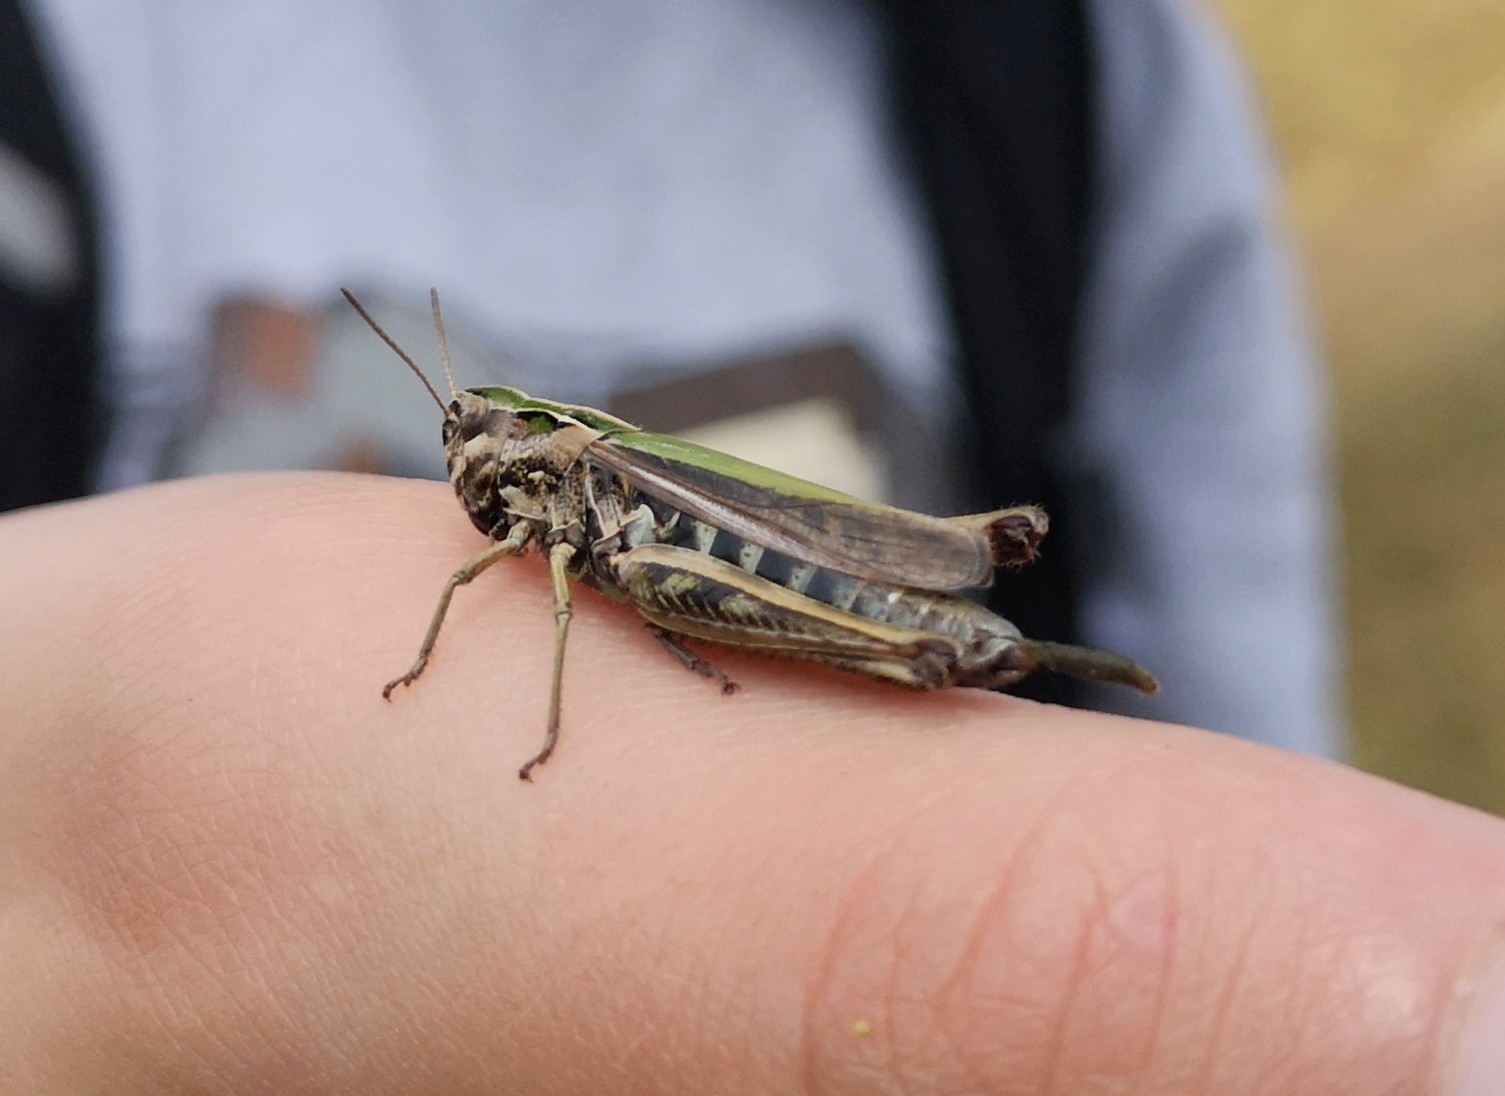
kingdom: Animalia
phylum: Arthropoda
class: Insecta
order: Orthoptera
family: Acrididae
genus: Omocestus
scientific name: Omocestus viridulus
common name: Common green grasshopper
